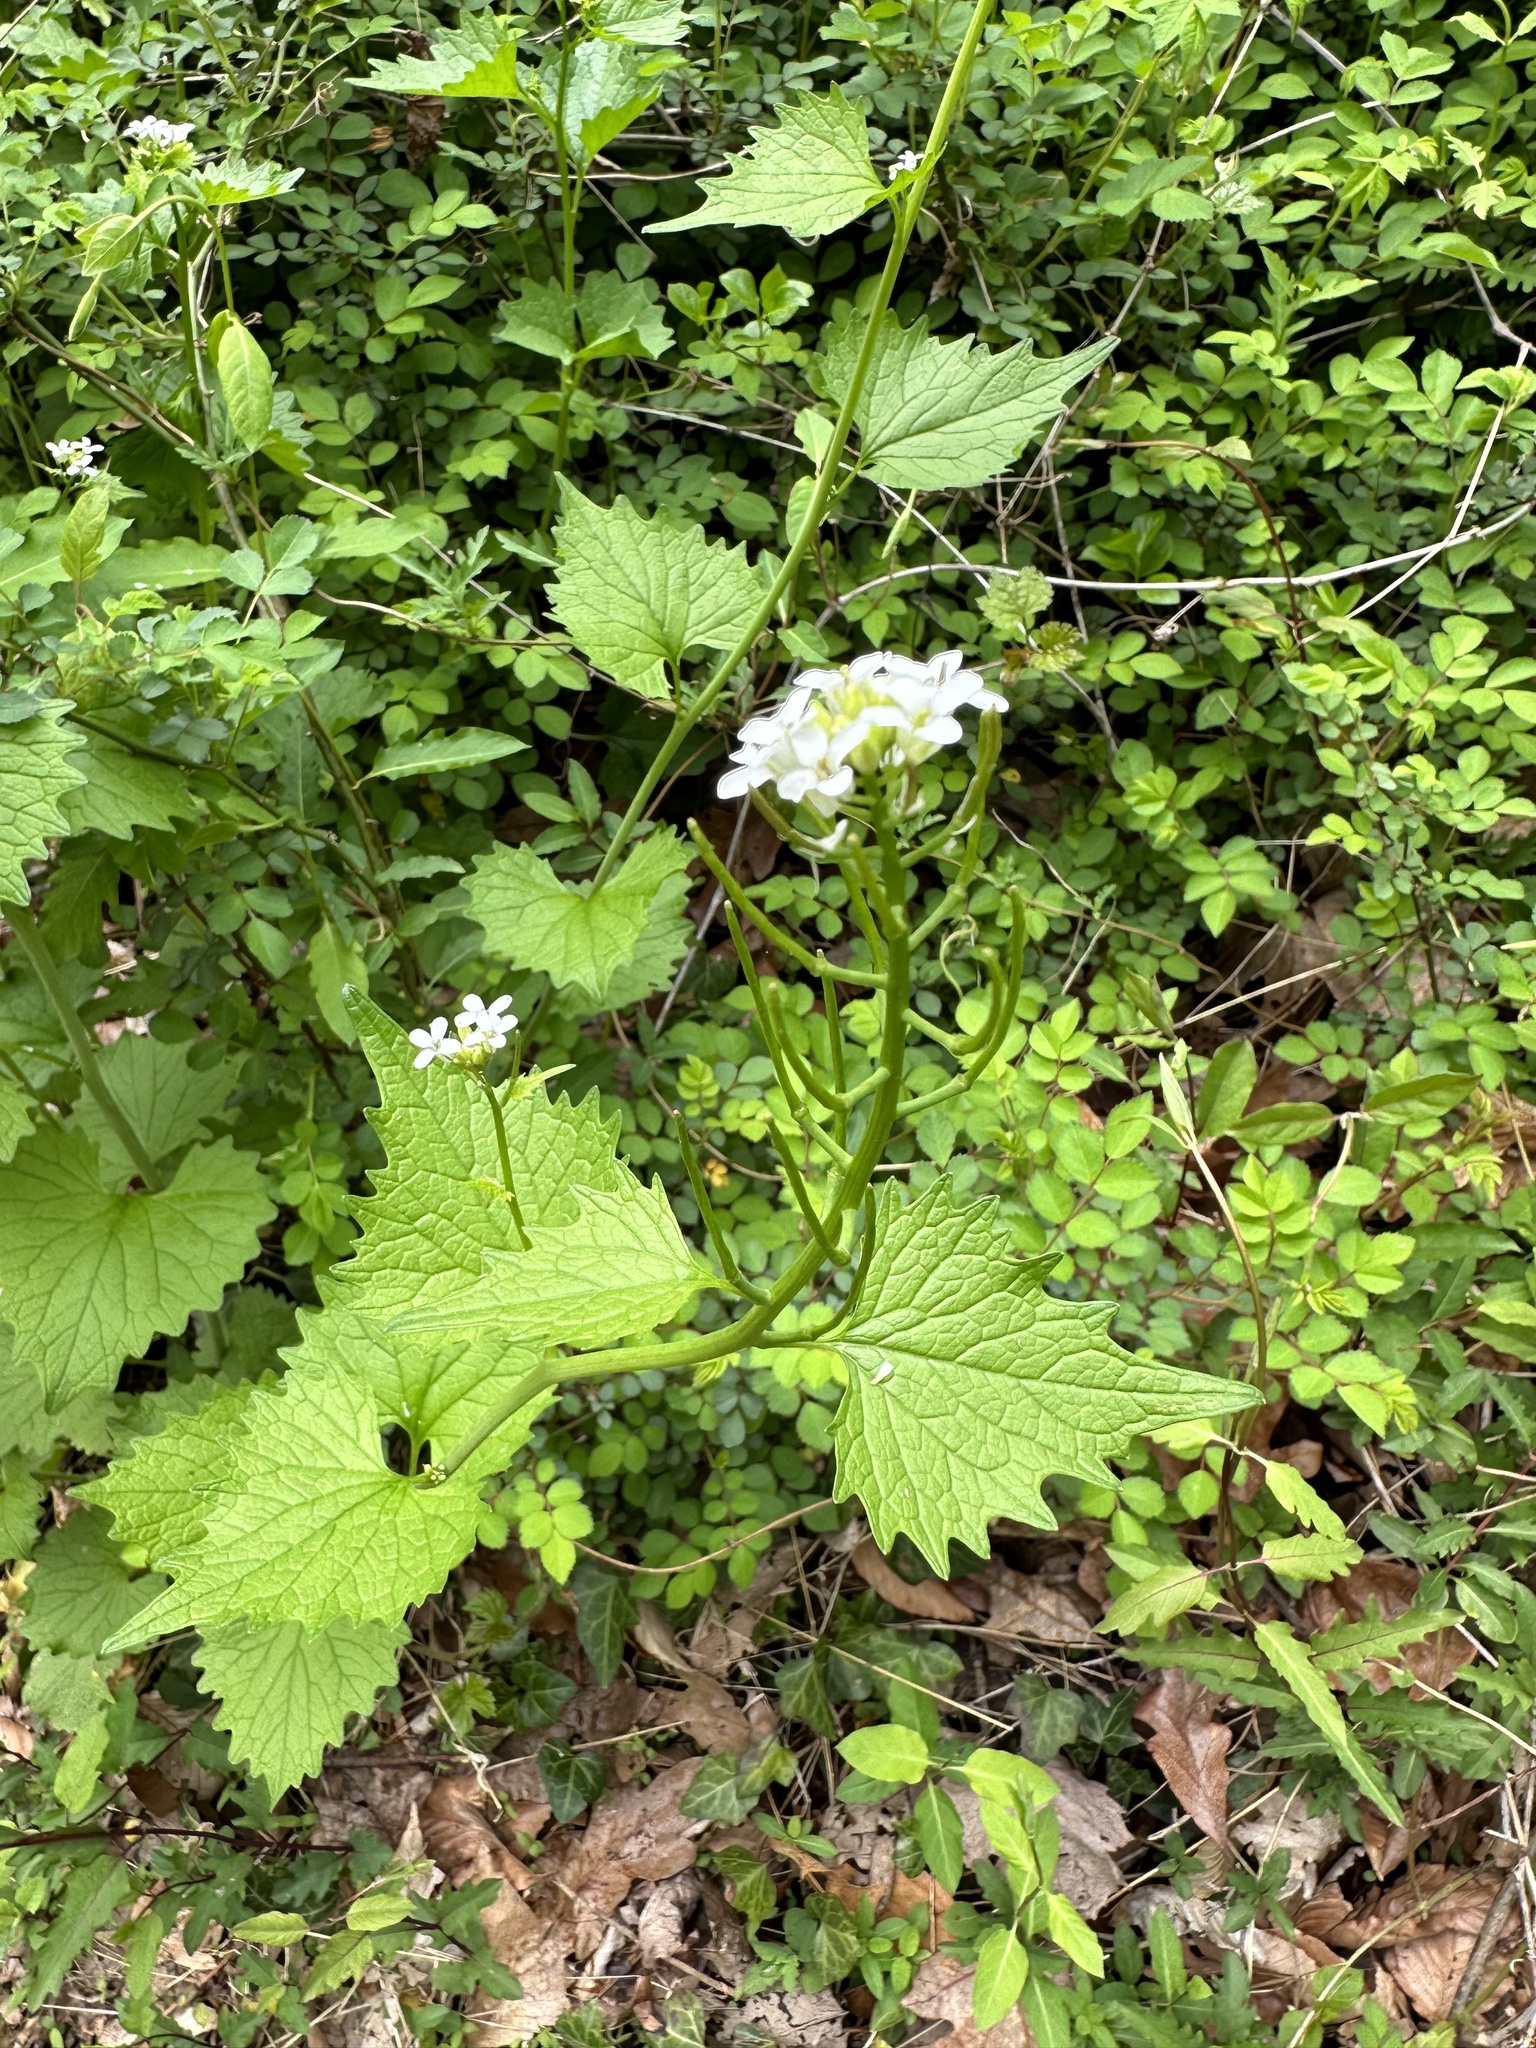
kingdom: Plantae
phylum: Tracheophyta
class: Magnoliopsida
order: Brassicales
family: Brassicaceae
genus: Alliaria
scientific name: Alliaria petiolata
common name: Garlic mustard
